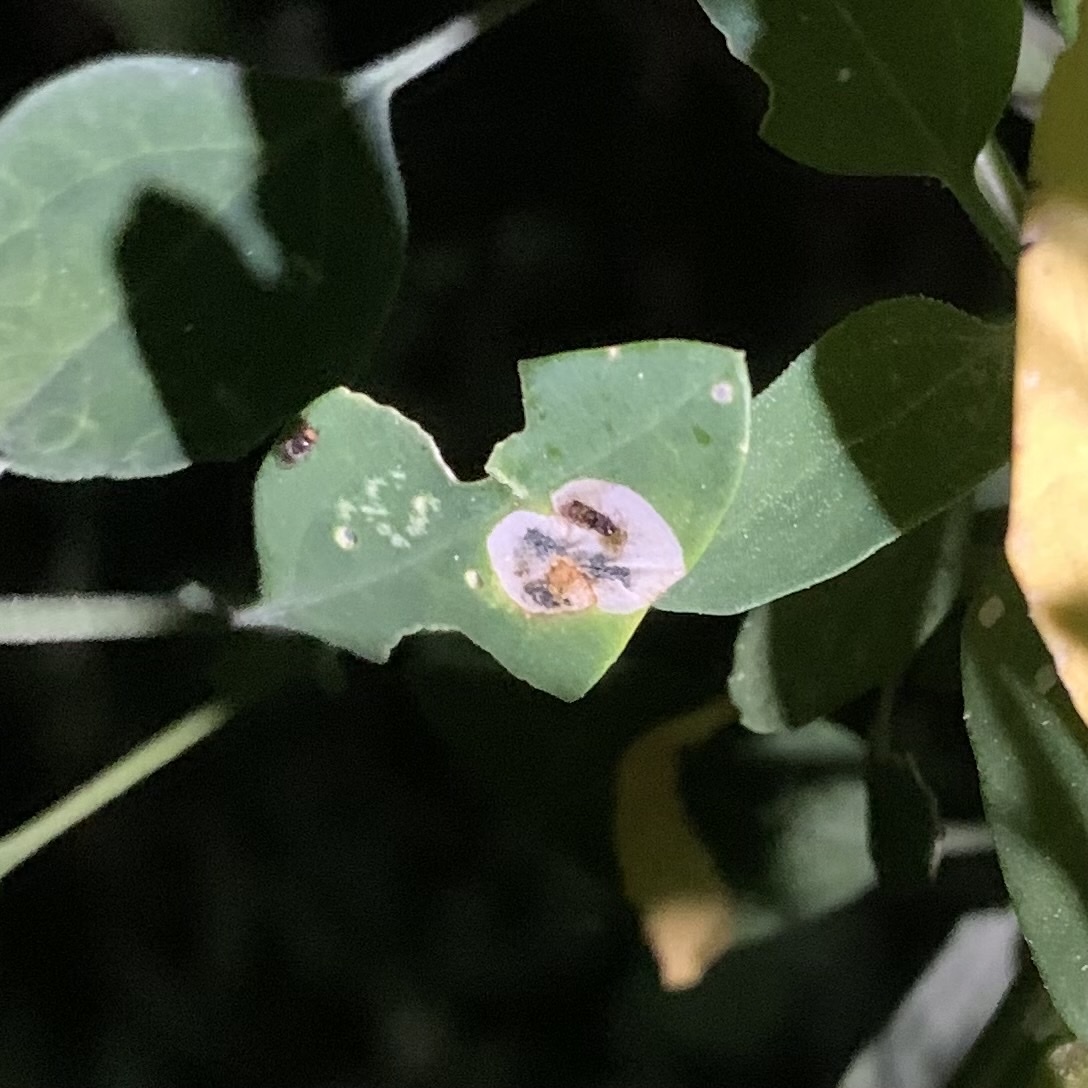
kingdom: Animalia
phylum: Arthropoda
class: Insecta
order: Lepidoptera
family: Gelechiidae
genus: Chrysoesthia
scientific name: Chrysoesthia sexguttella
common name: Moth
